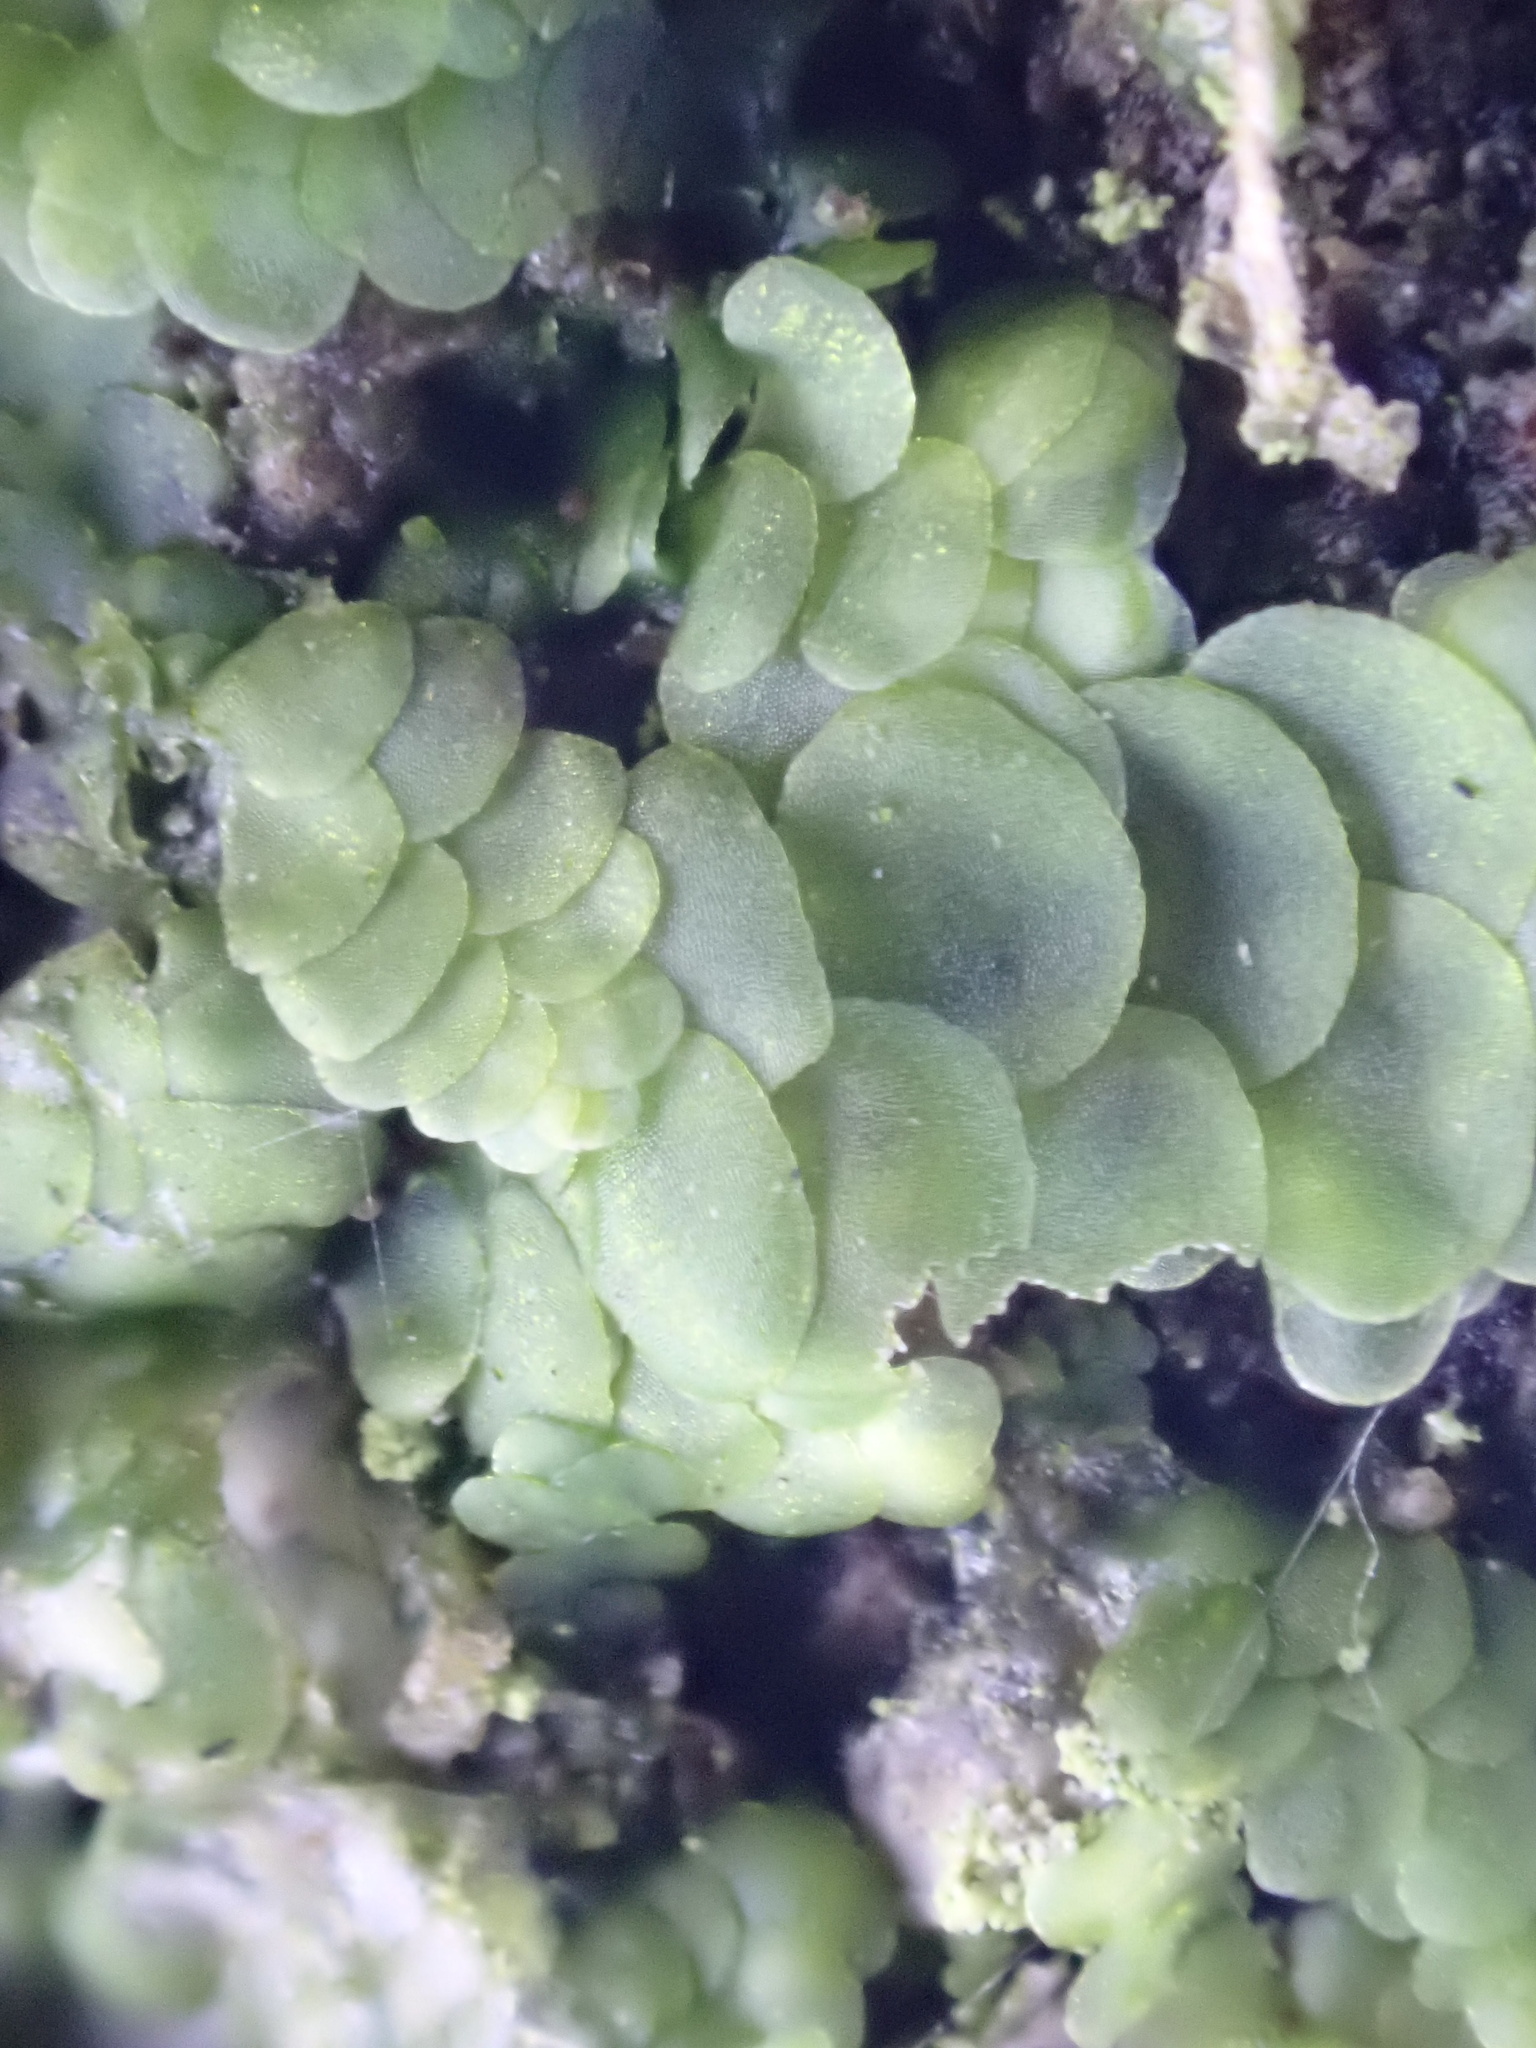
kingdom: Plantae
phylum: Marchantiophyta
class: Jungermanniopsida
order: Porellales
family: Radulaceae
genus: Radula
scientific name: Radula complanata
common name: Flat-leaved scalewort
